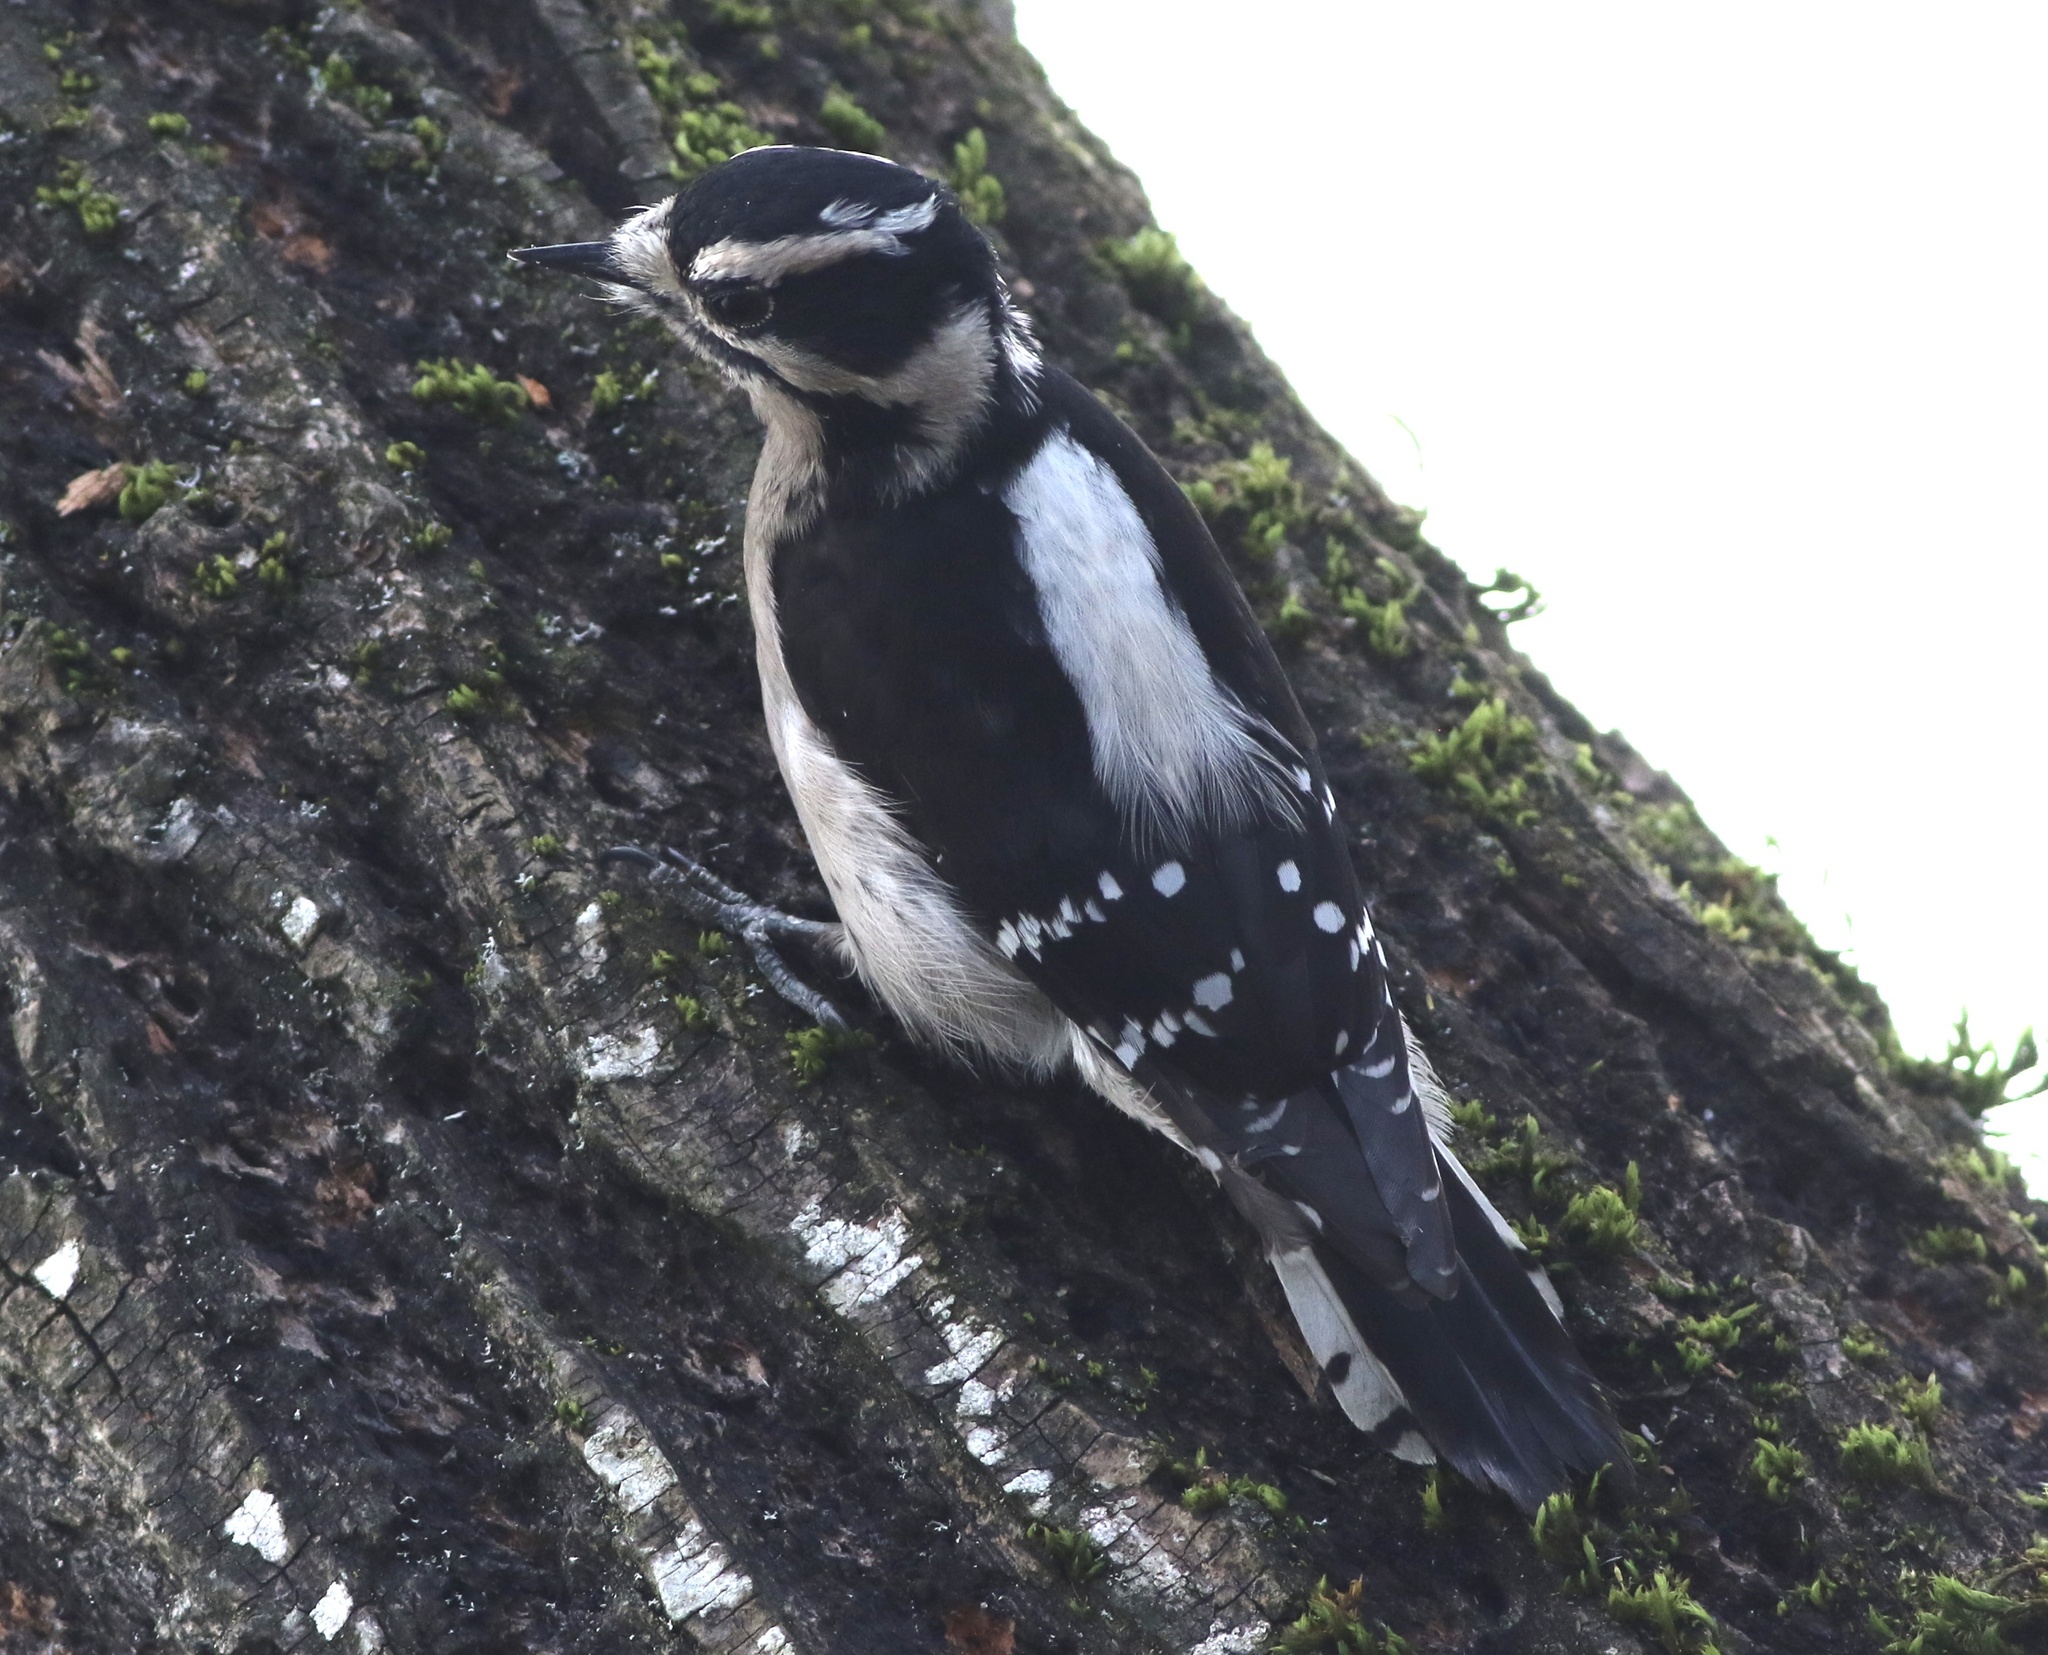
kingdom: Animalia
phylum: Chordata
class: Aves
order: Piciformes
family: Picidae
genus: Dryobates
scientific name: Dryobates pubescens
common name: Downy woodpecker
